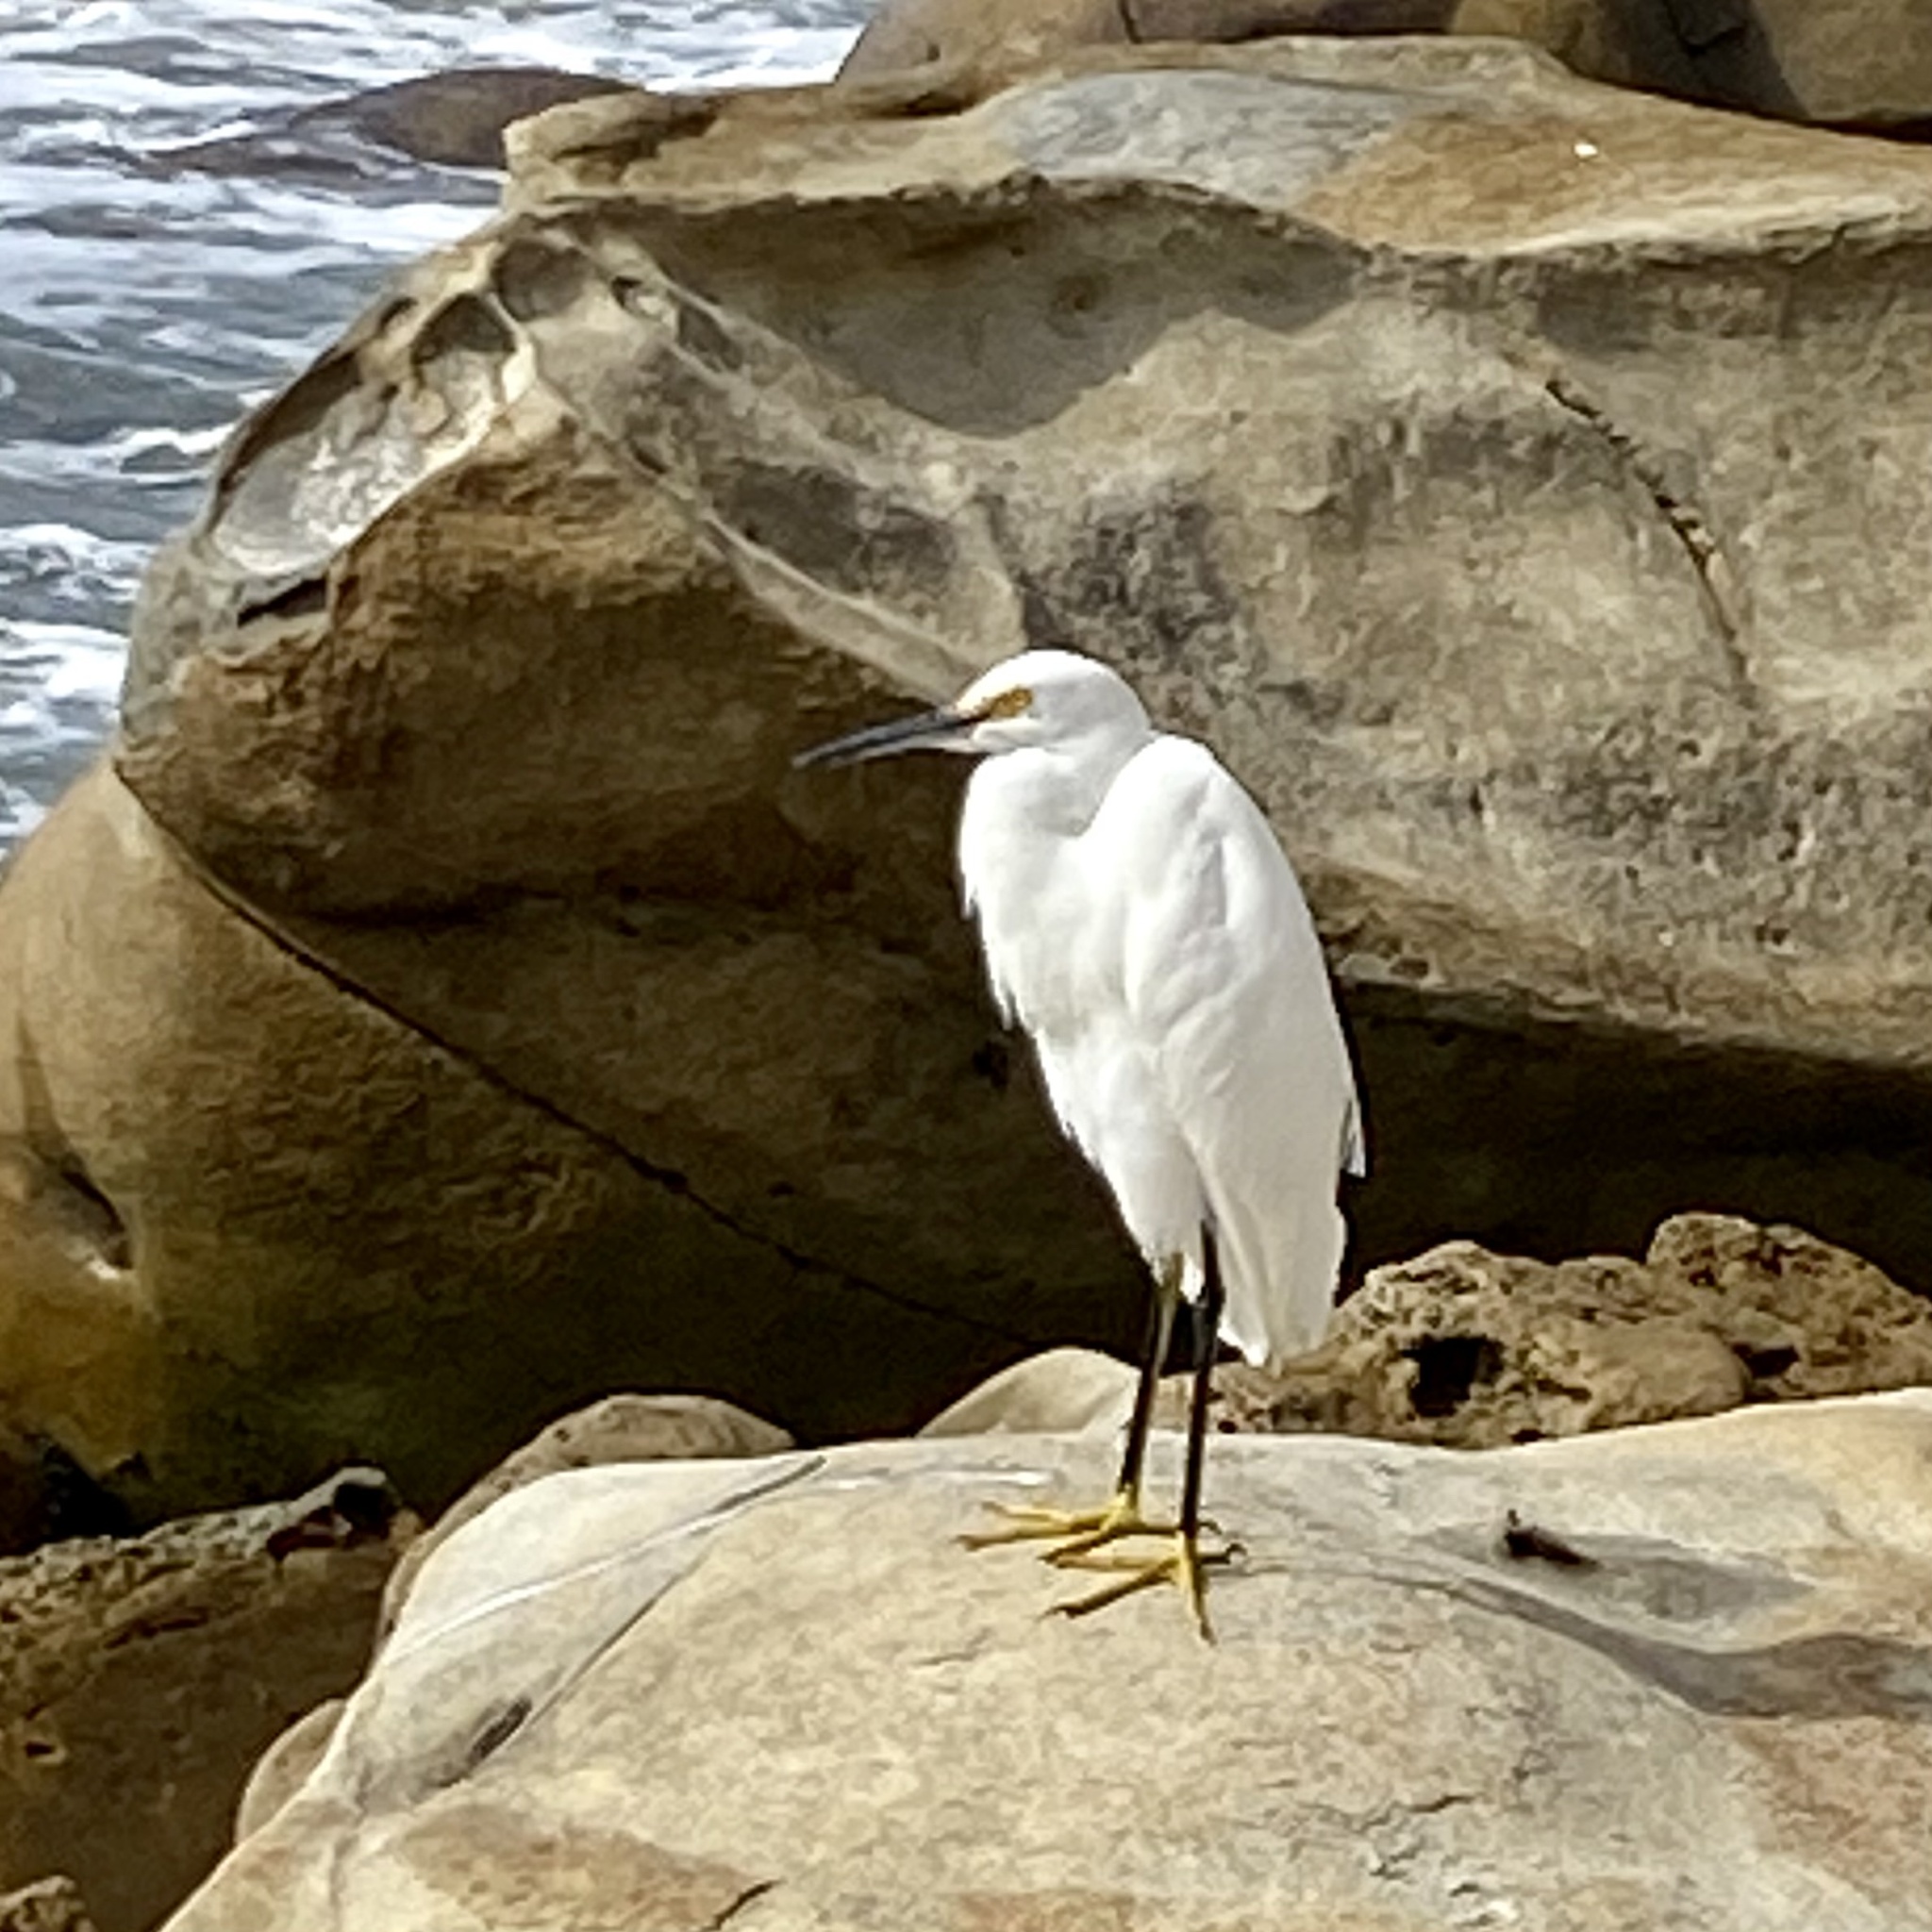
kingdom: Animalia
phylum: Chordata
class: Aves
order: Pelecaniformes
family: Ardeidae
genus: Egretta
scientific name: Egretta thula
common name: Snowy egret
